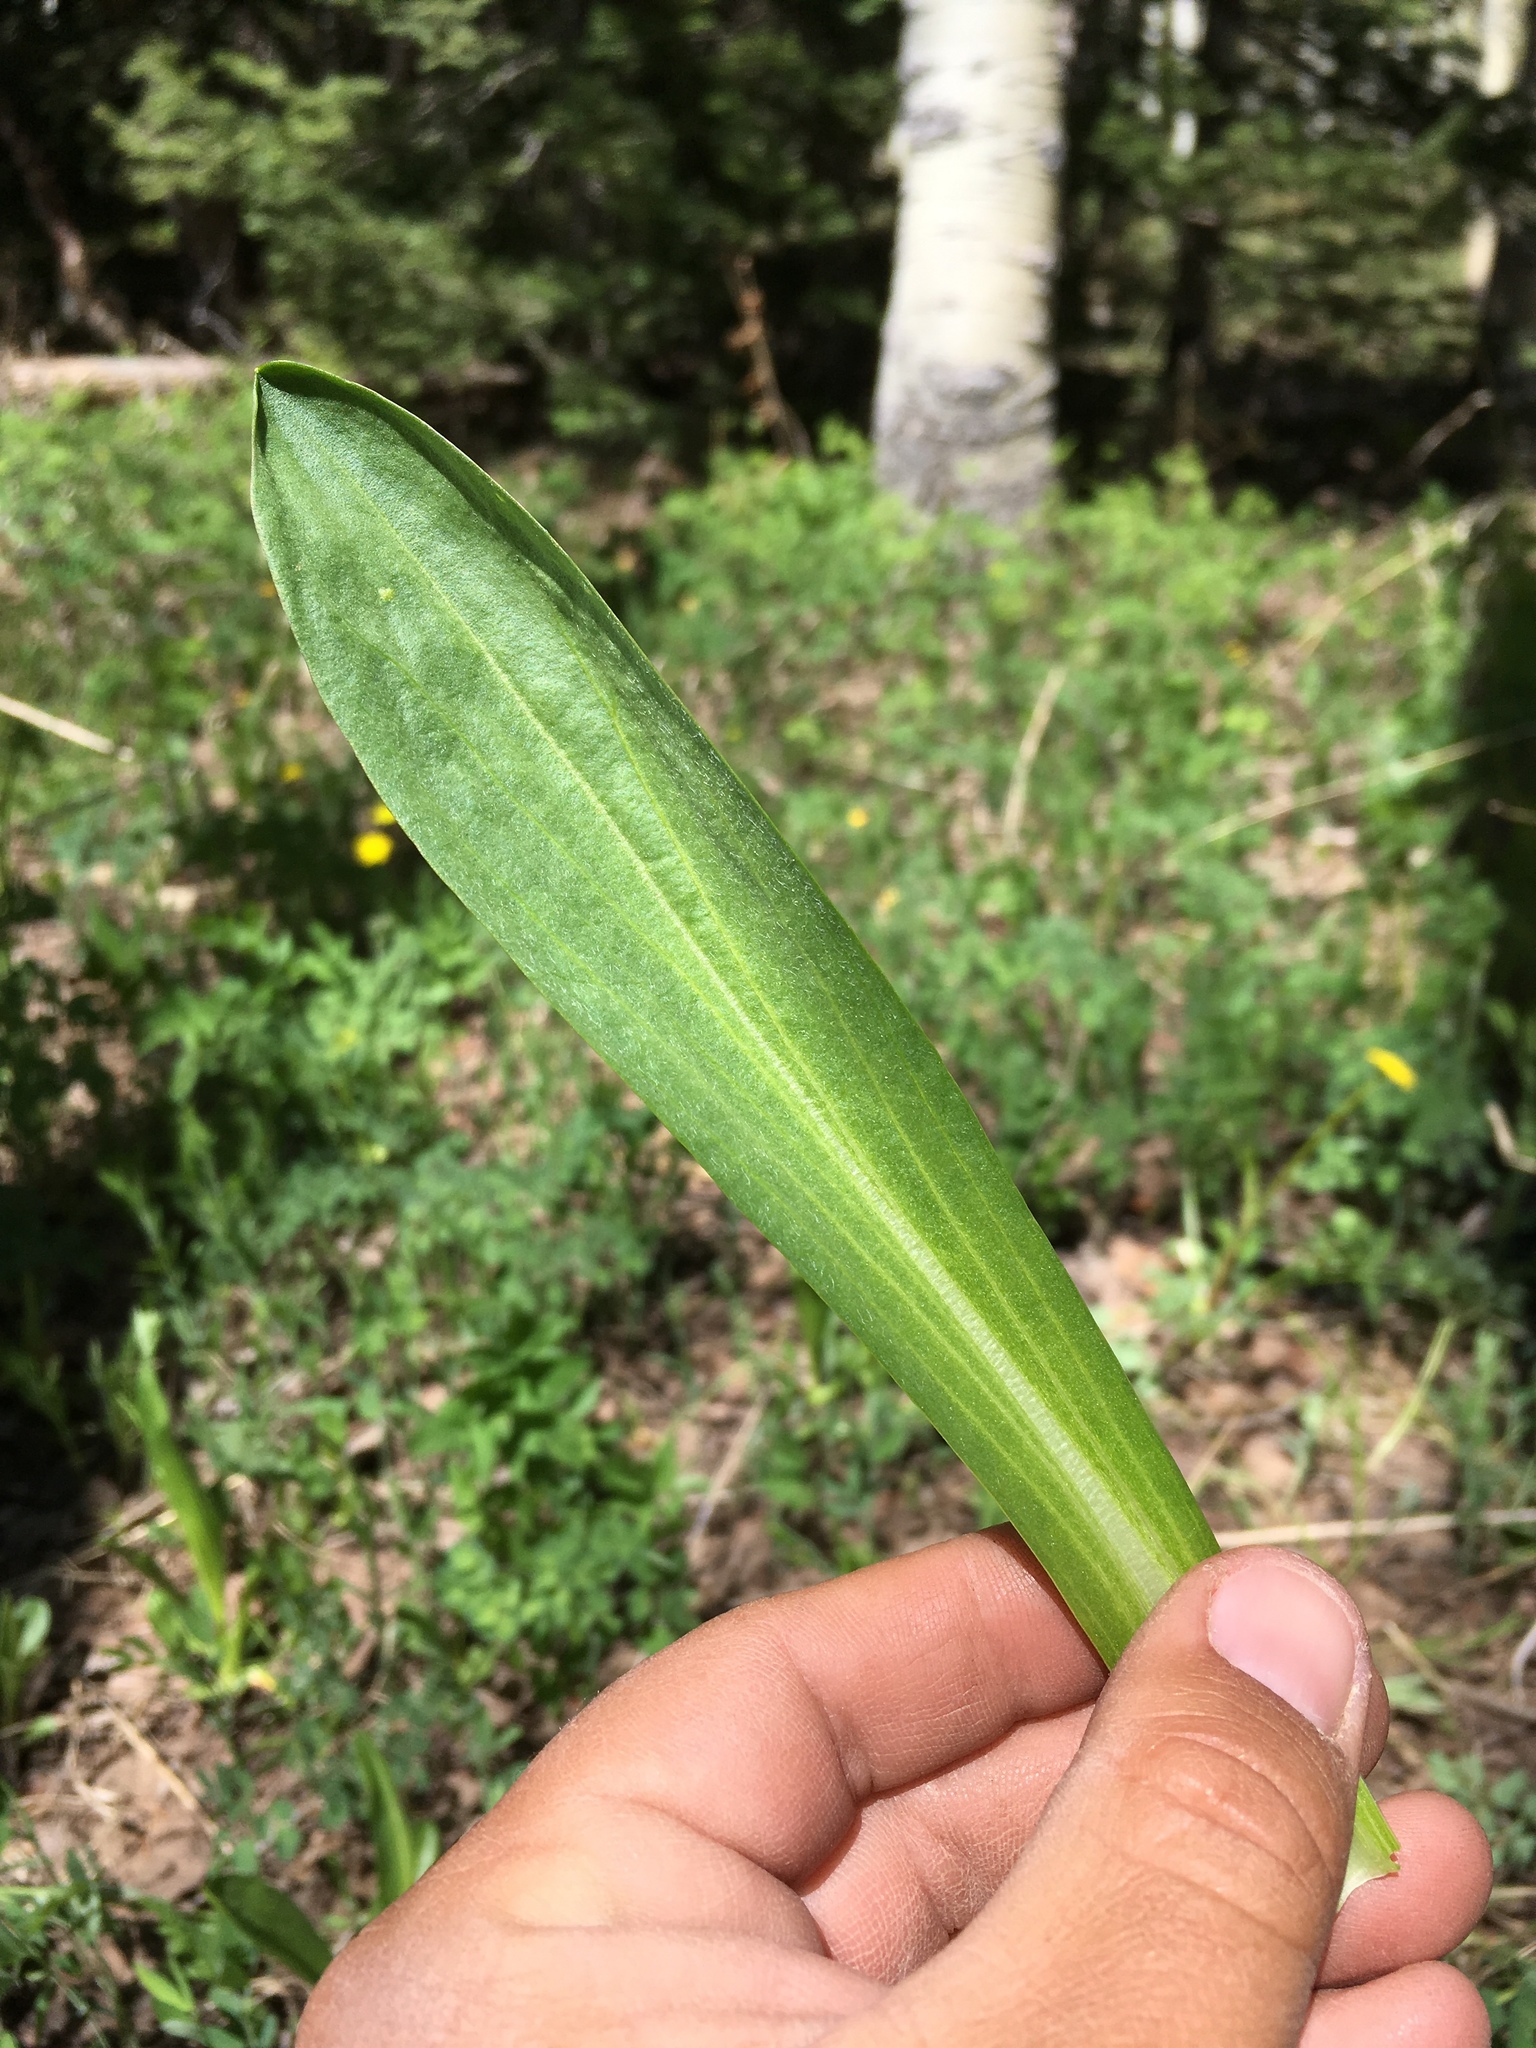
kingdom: Plantae
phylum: Tracheophyta
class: Magnoliopsida
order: Asterales
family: Asteraceae
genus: Hymenoxys
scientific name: Hymenoxys hoopesii
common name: Orange-sneezeweed
